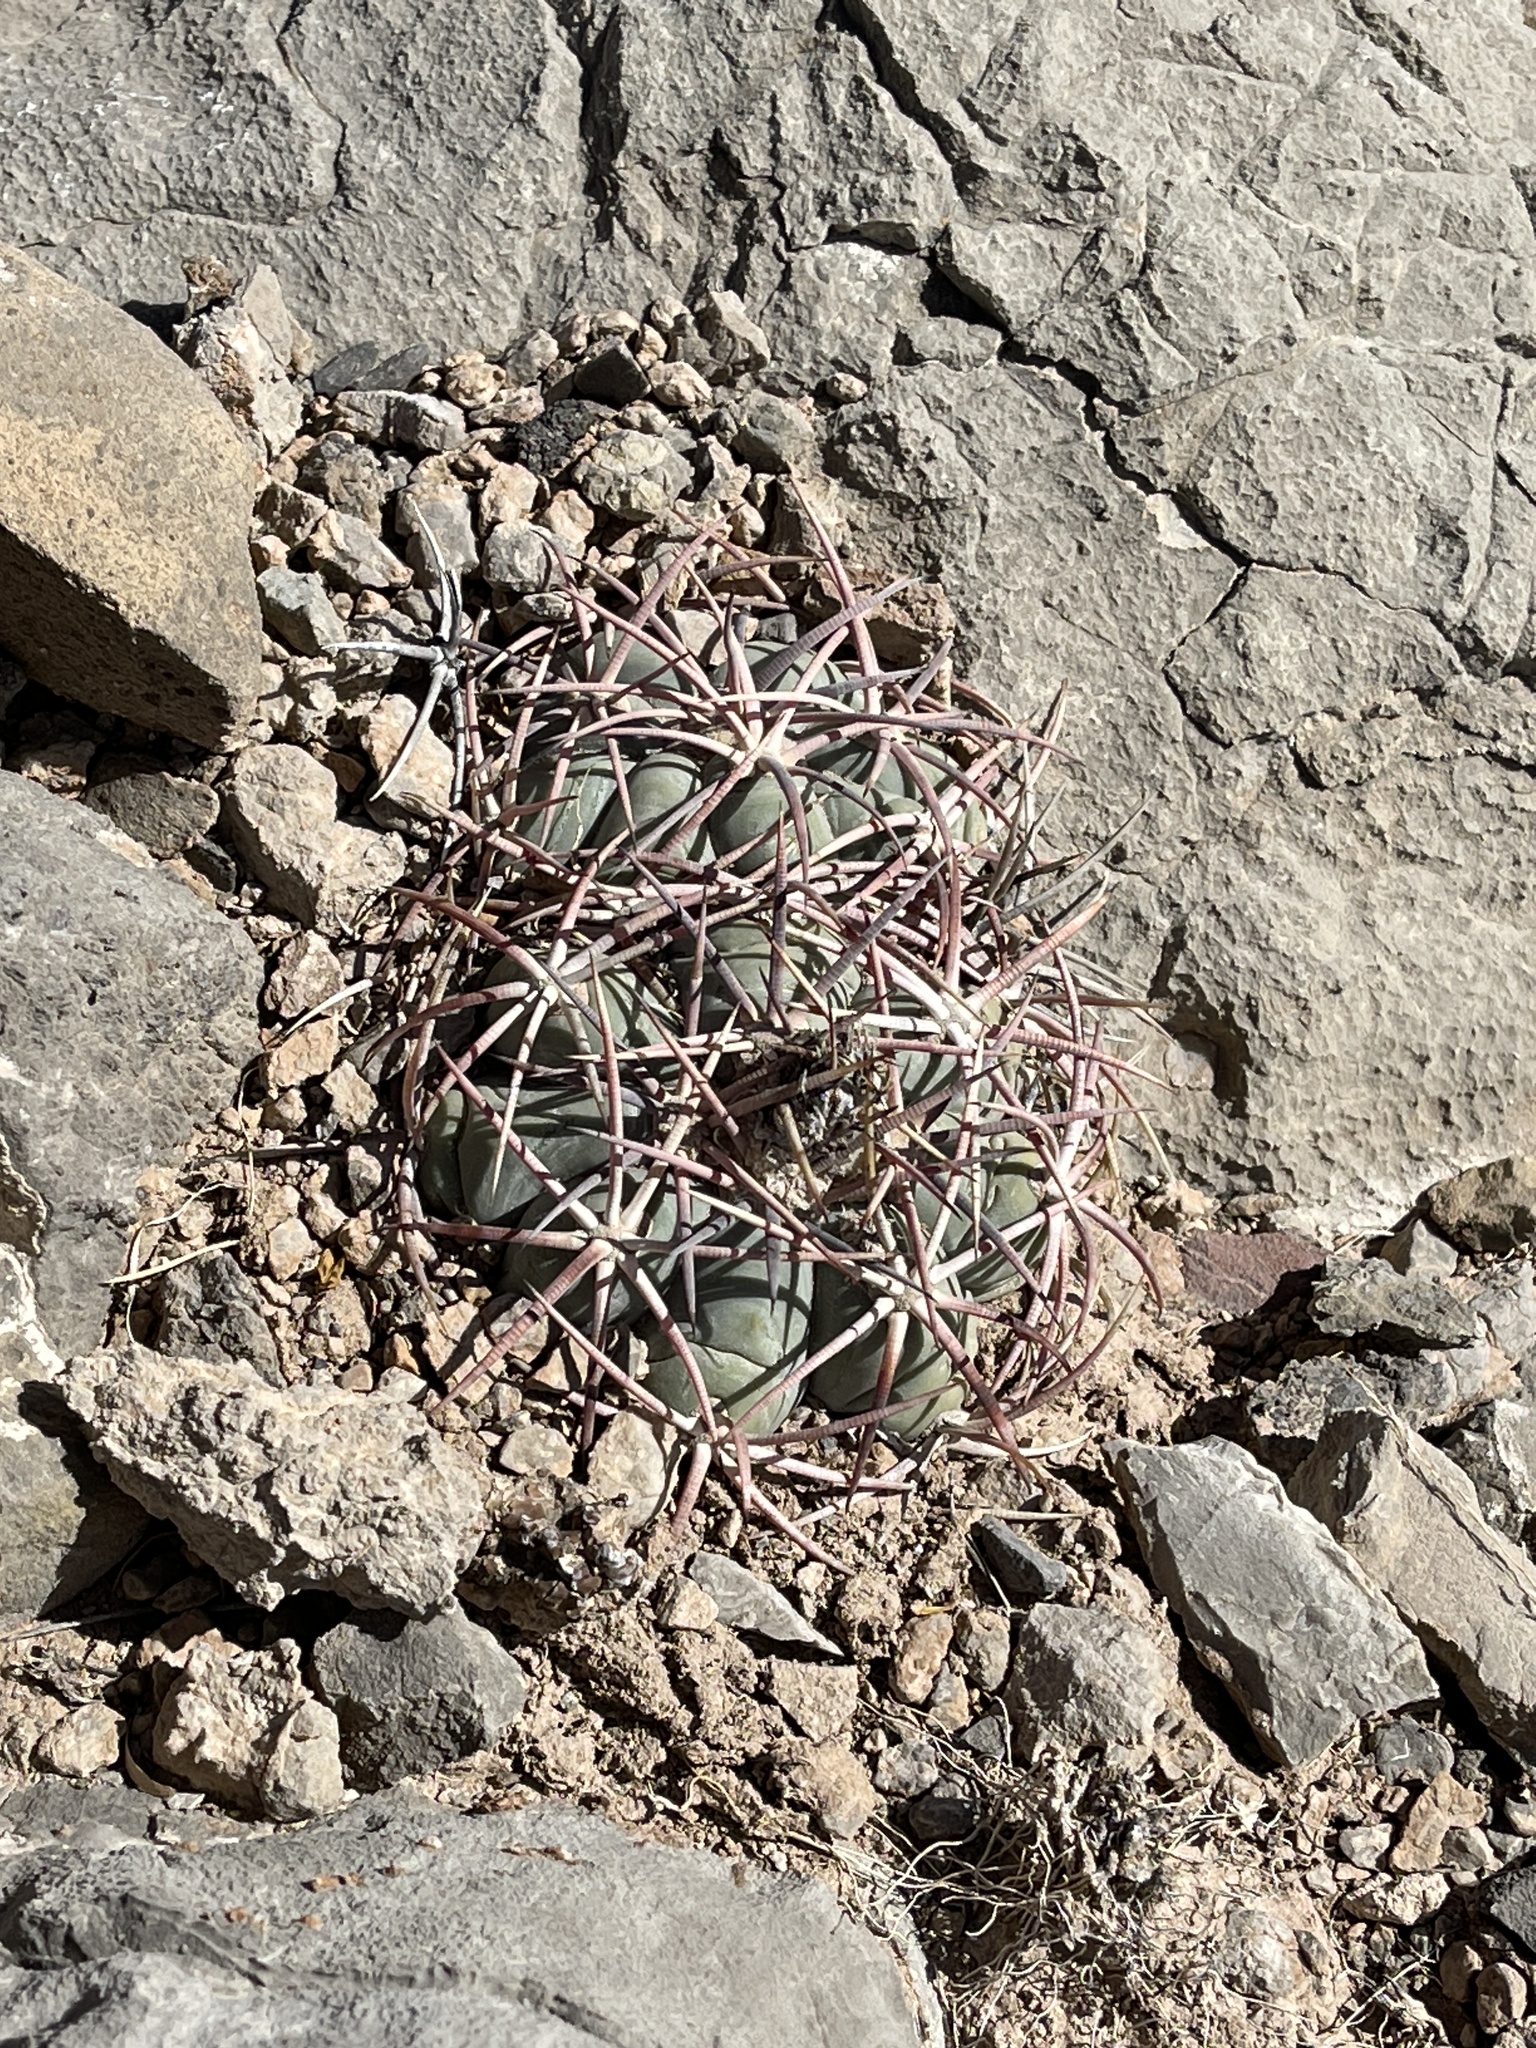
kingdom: Plantae
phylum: Tracheophyta
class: Magnoliopsida
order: Caryophyllales
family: Cactaceae
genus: Echinocactus
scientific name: Echinocactus horizonthalonius
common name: Devilshead
